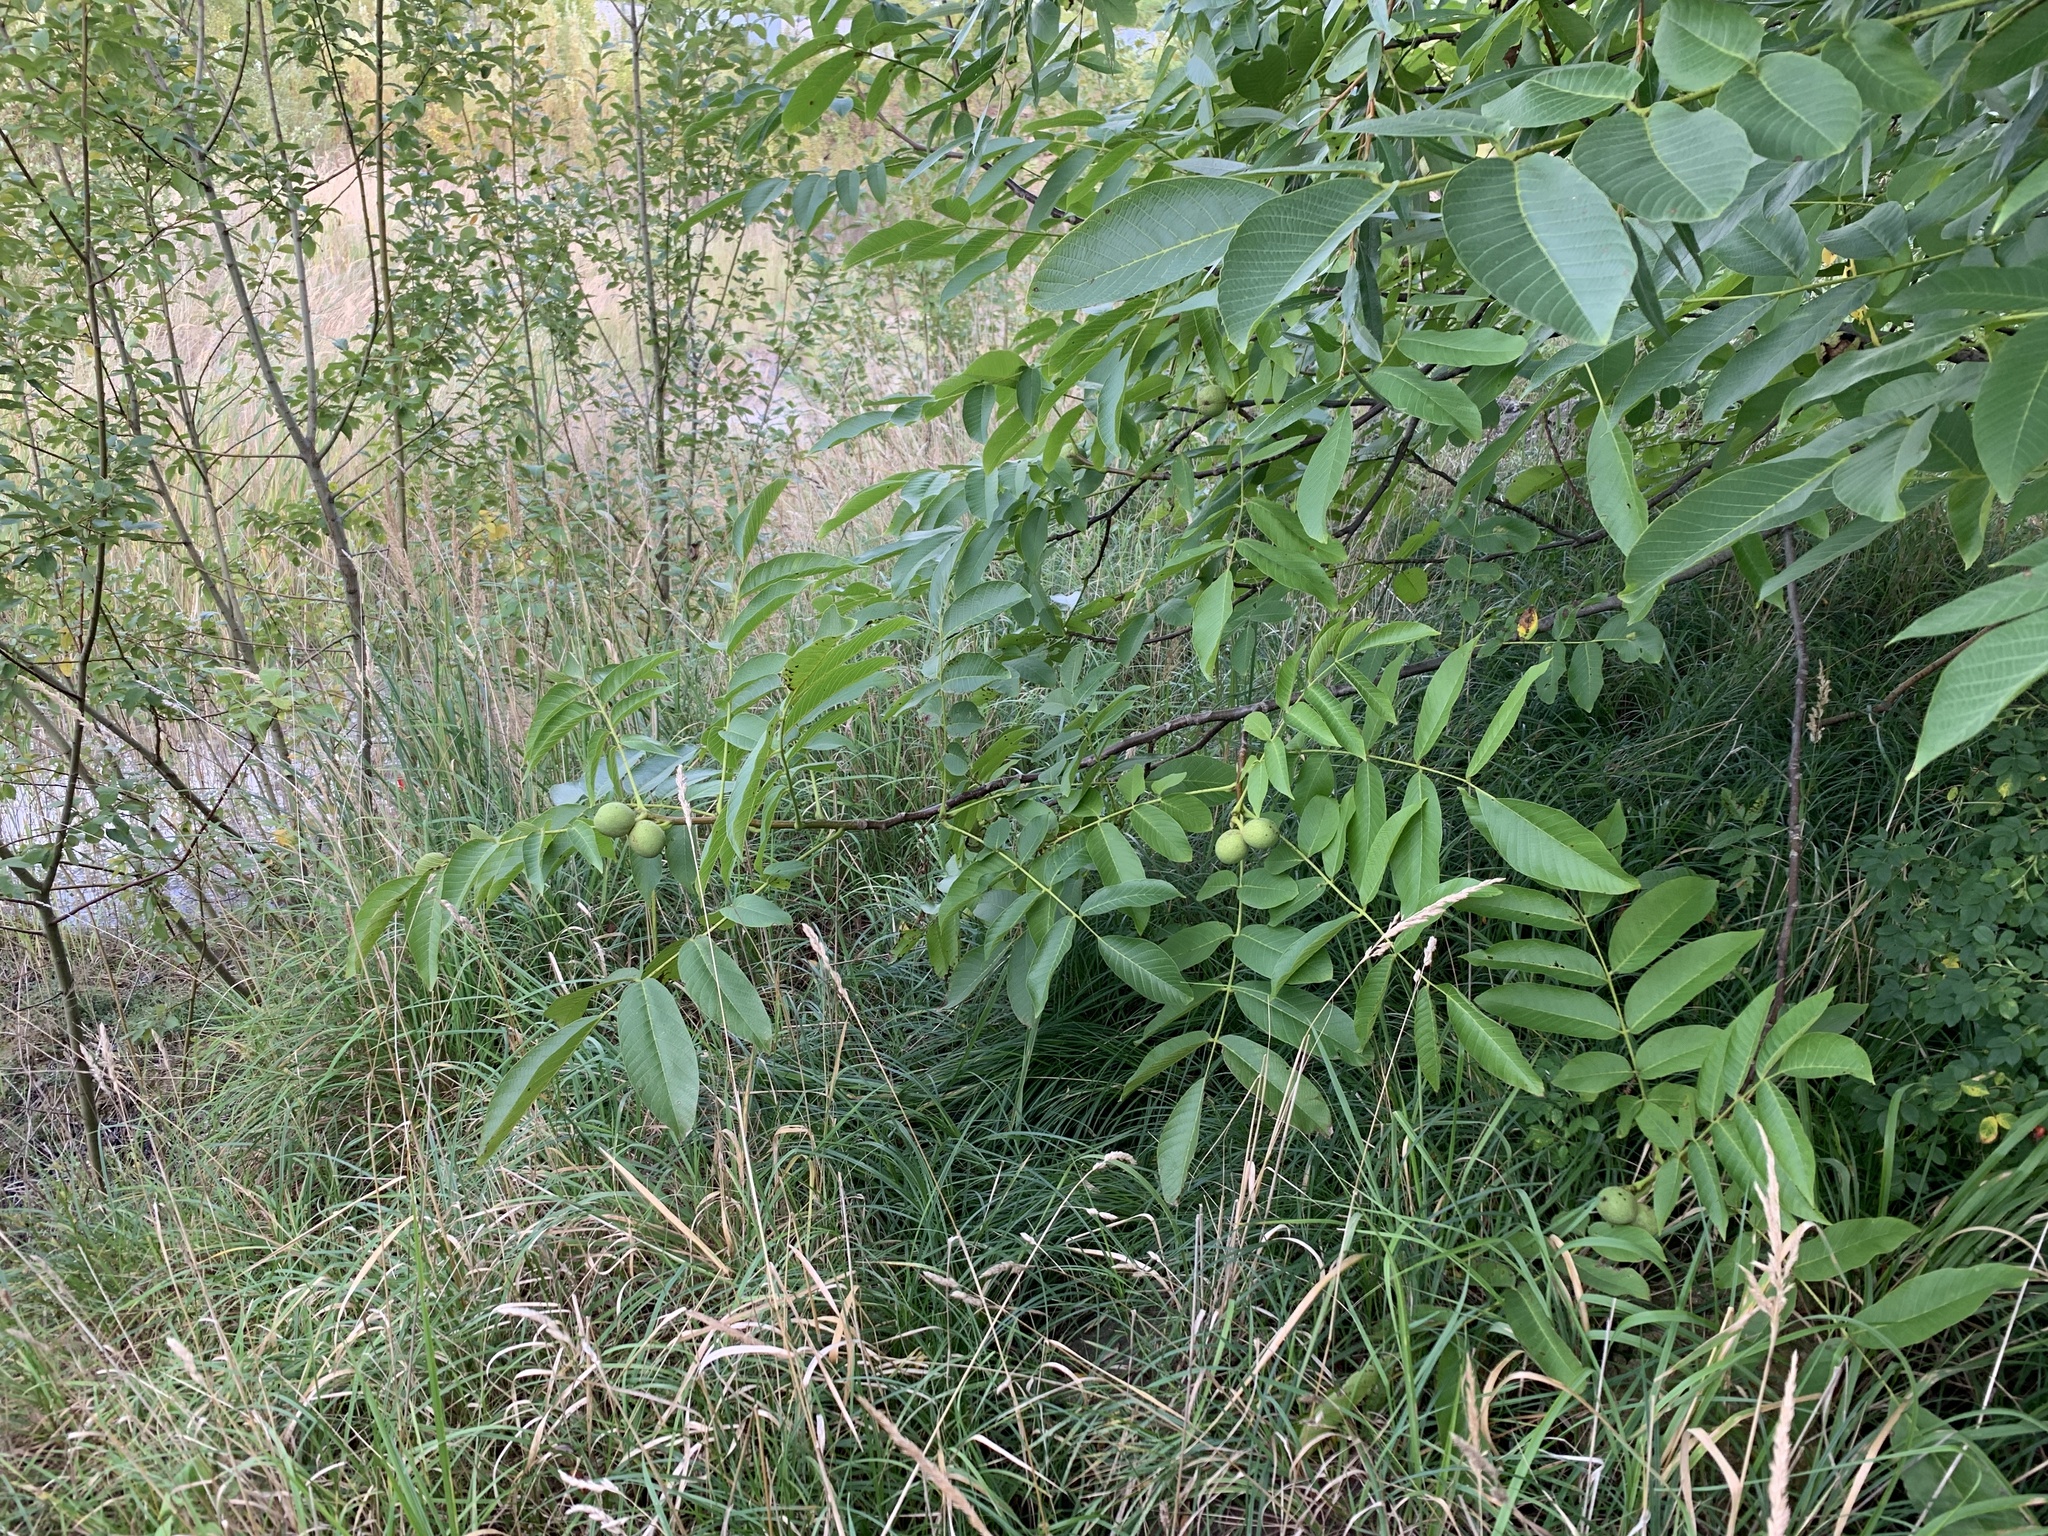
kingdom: Plantae
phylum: Tracheophyta
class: Magnoliopsida
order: Fagales
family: Juglandaceae
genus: Juglans
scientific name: Juglans regia
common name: Walnut
